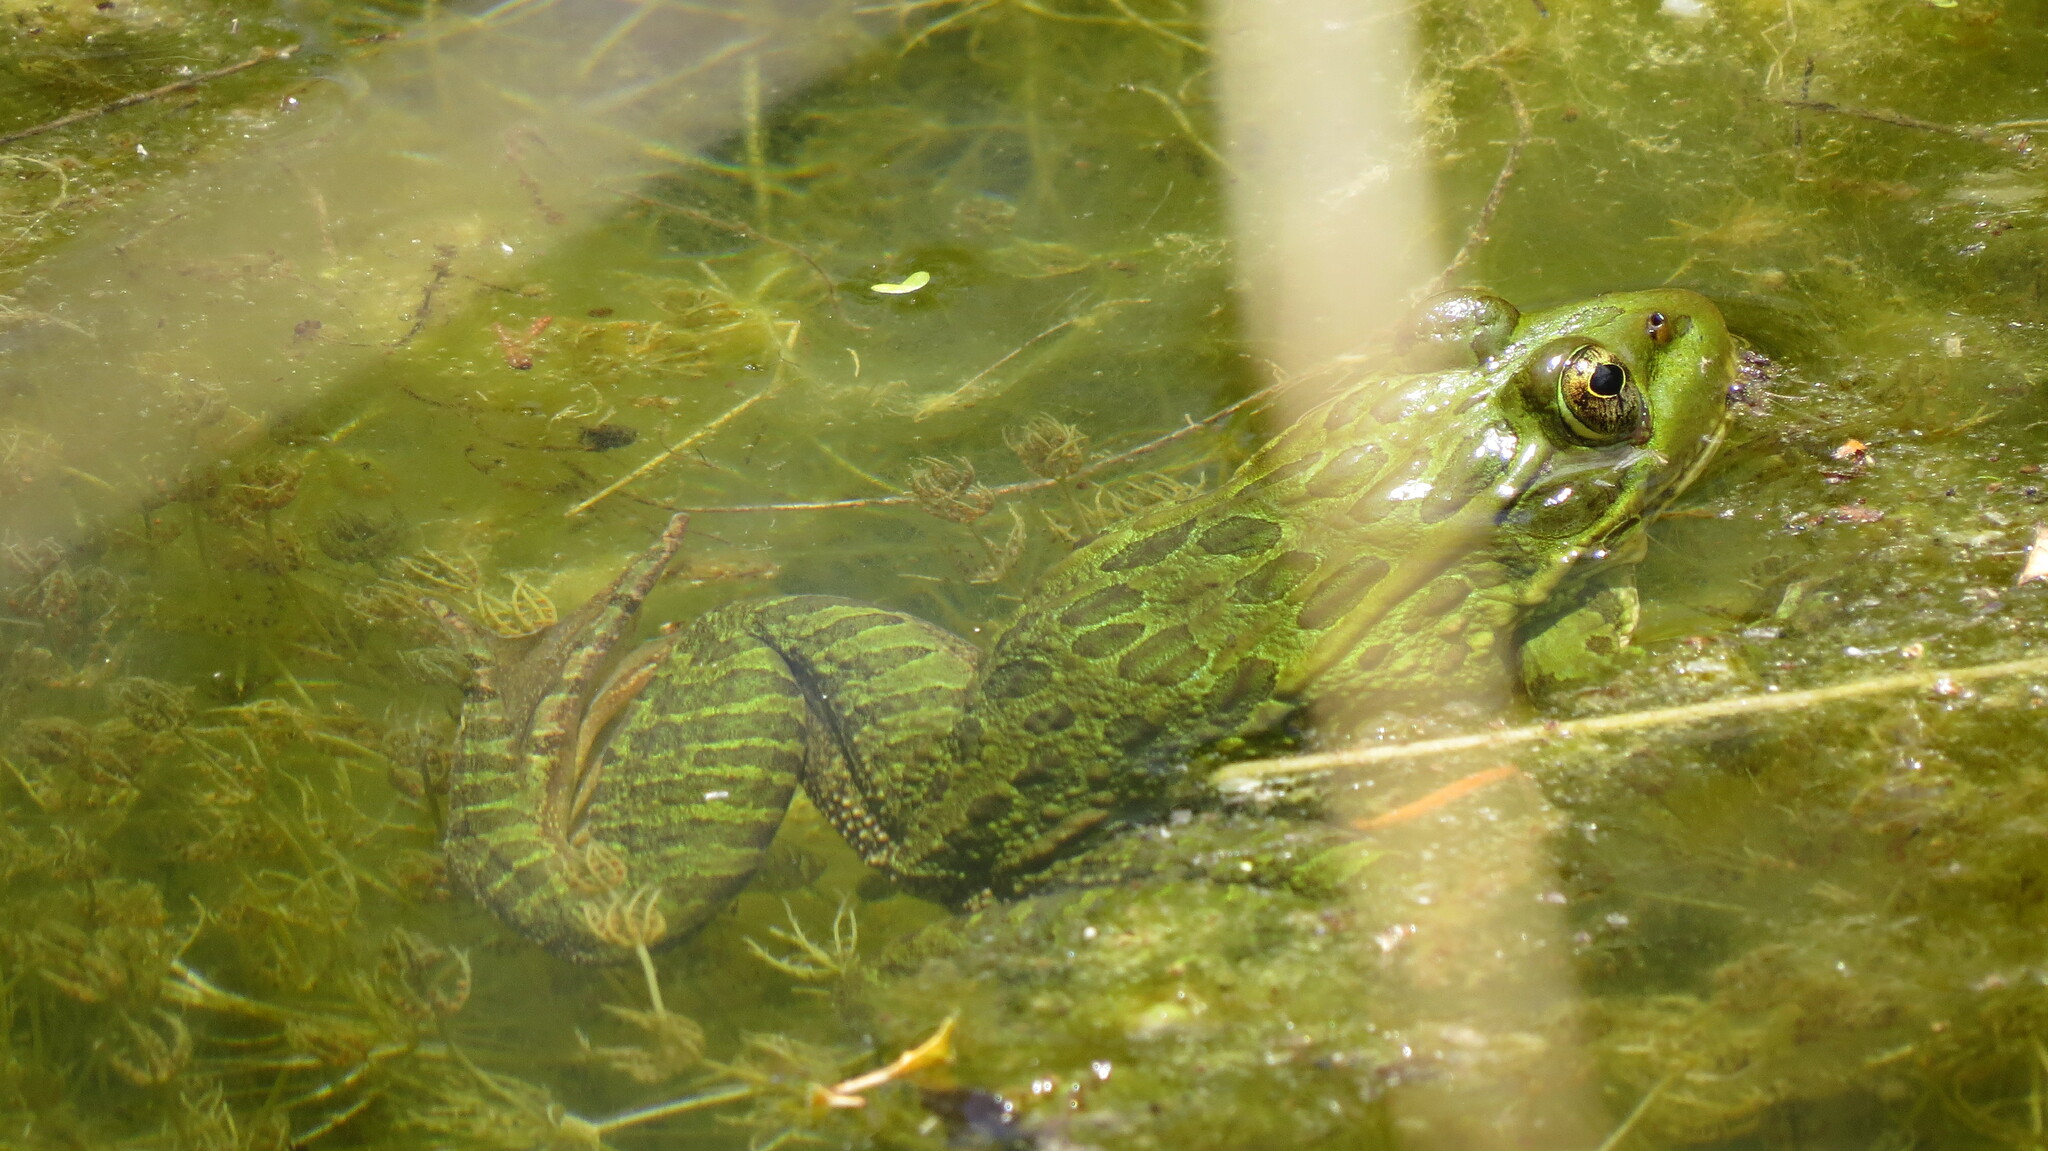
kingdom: Animalia
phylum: Chordata
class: Amphibia
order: Anura
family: Ranidae
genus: Lithobates
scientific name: Lithobates chiricahuensis
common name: Chiricahua leopard frog
